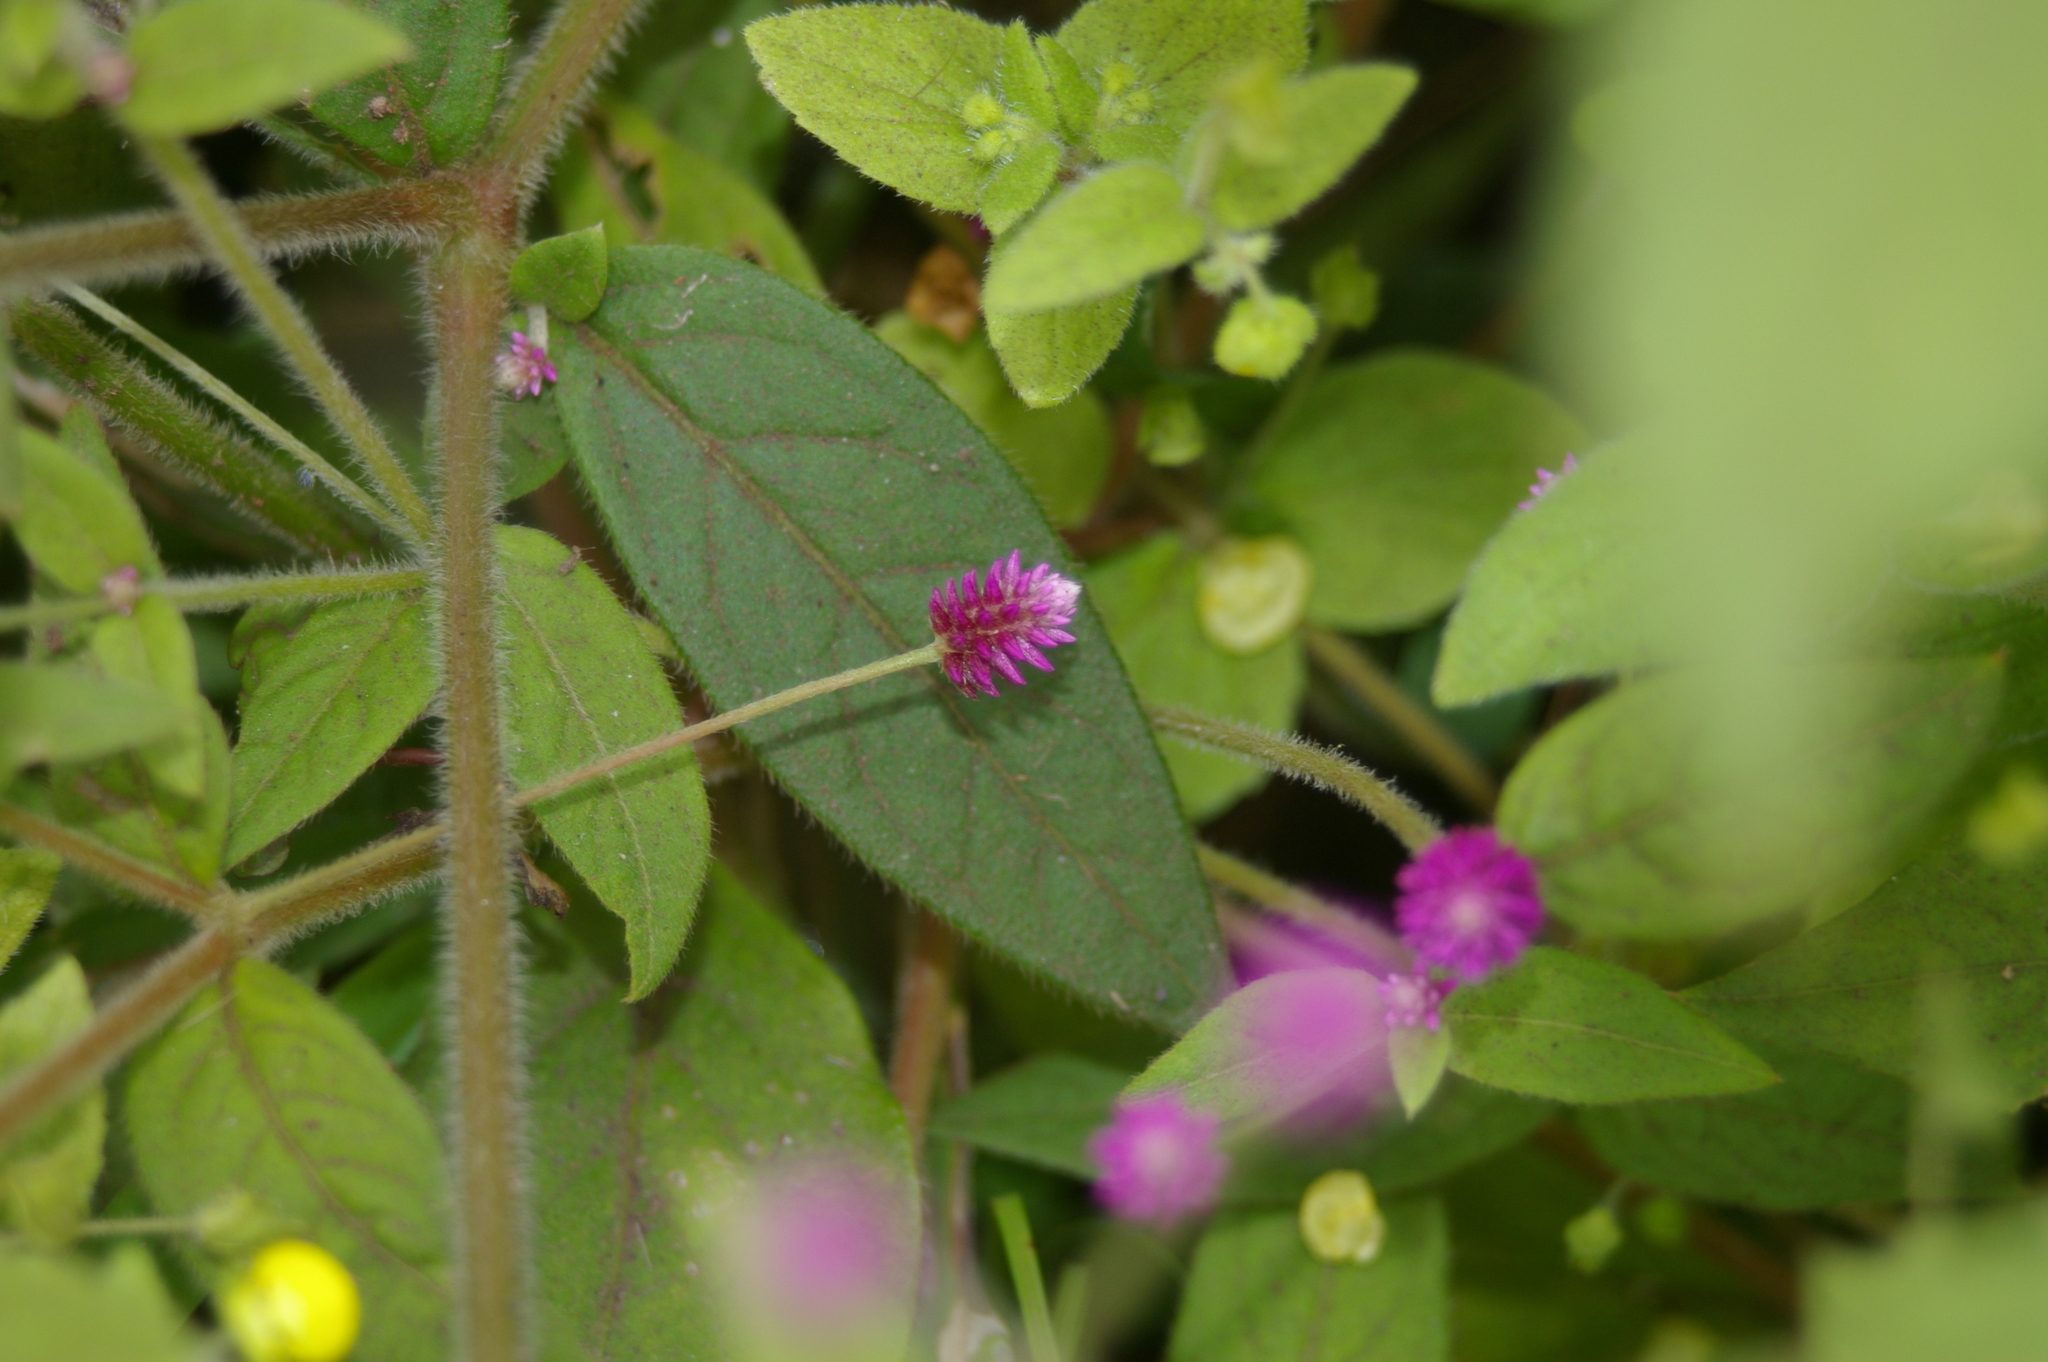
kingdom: Plantae
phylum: Tracheophyta
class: Magnoliopsida
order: Caryophyllales
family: Amaranthaceae
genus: Gomphrena
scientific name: Gomphrena globosa
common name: Common globe amaranth
